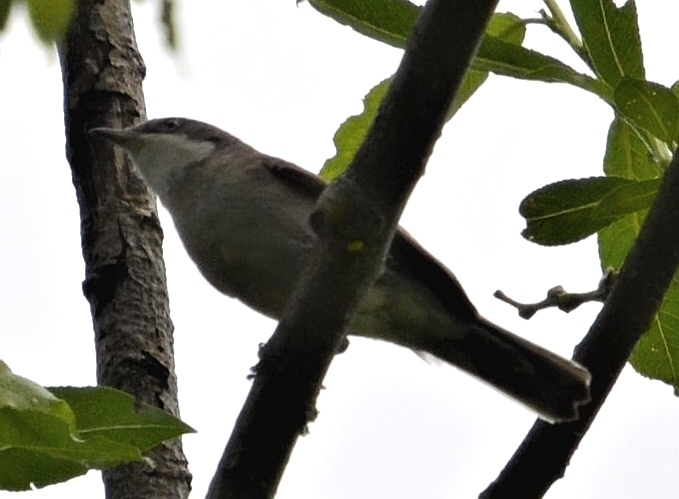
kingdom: Animalia
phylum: Chordata
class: Aves
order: Passeriformes
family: Sylviidae
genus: Sylvia
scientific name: Sylvia curruca
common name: Lesser whitethroat
